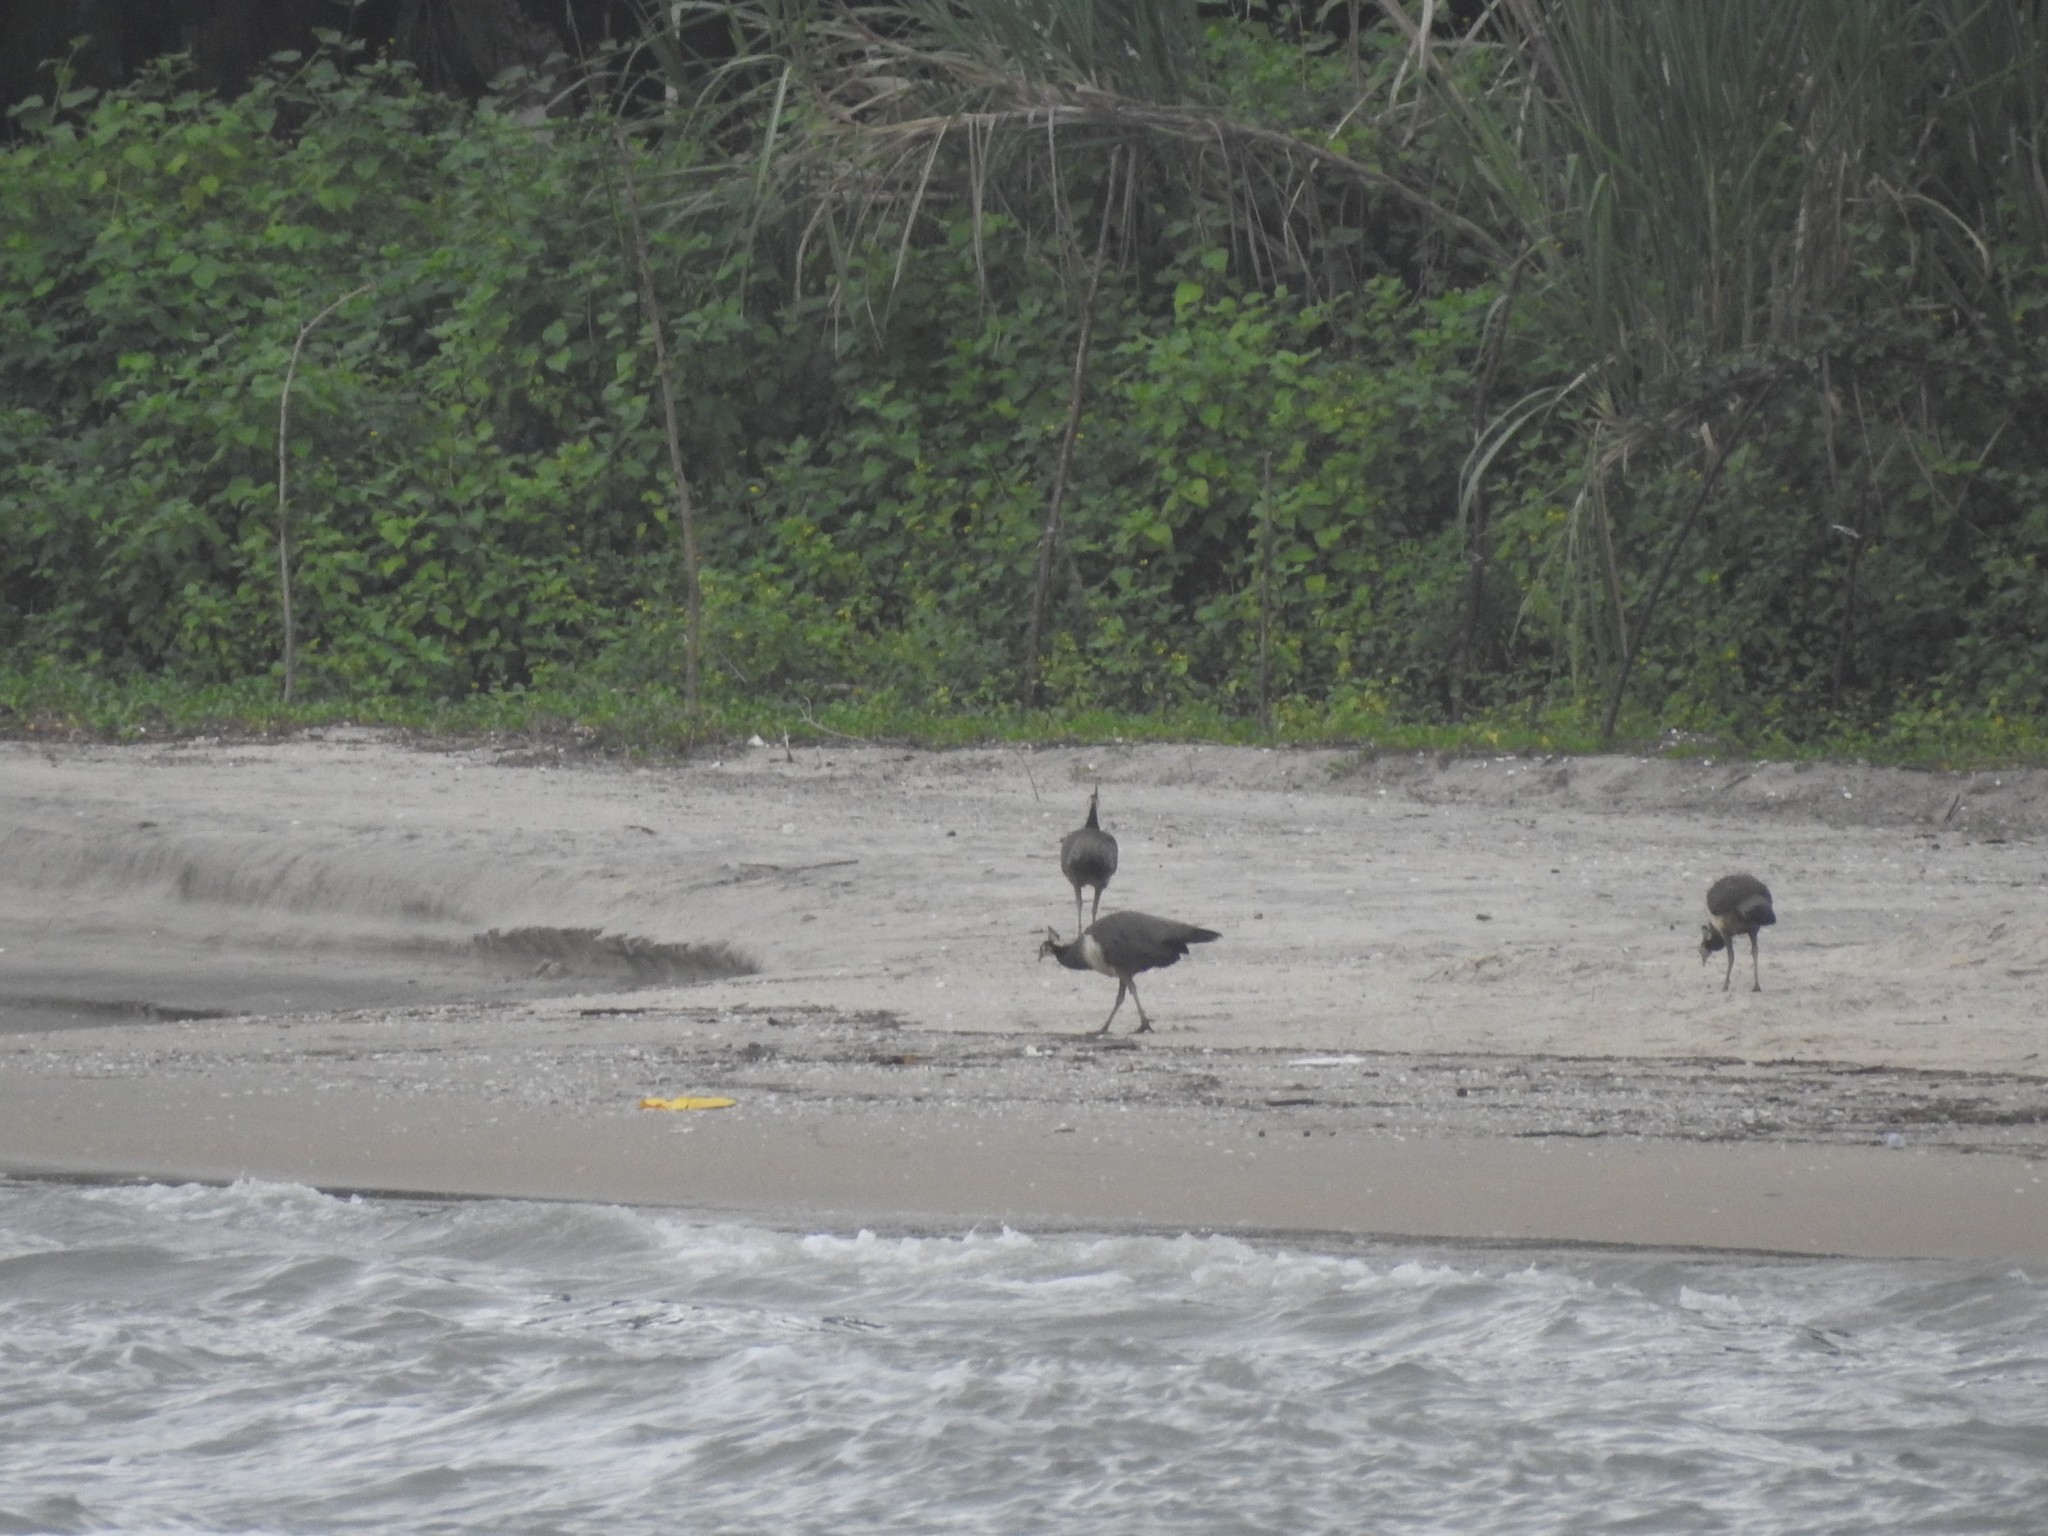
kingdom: Animalia
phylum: Chordata
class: Aves
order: Galliformes
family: Phasianidae
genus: Pavo
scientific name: Pavo cristatus
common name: Indian peafowl
